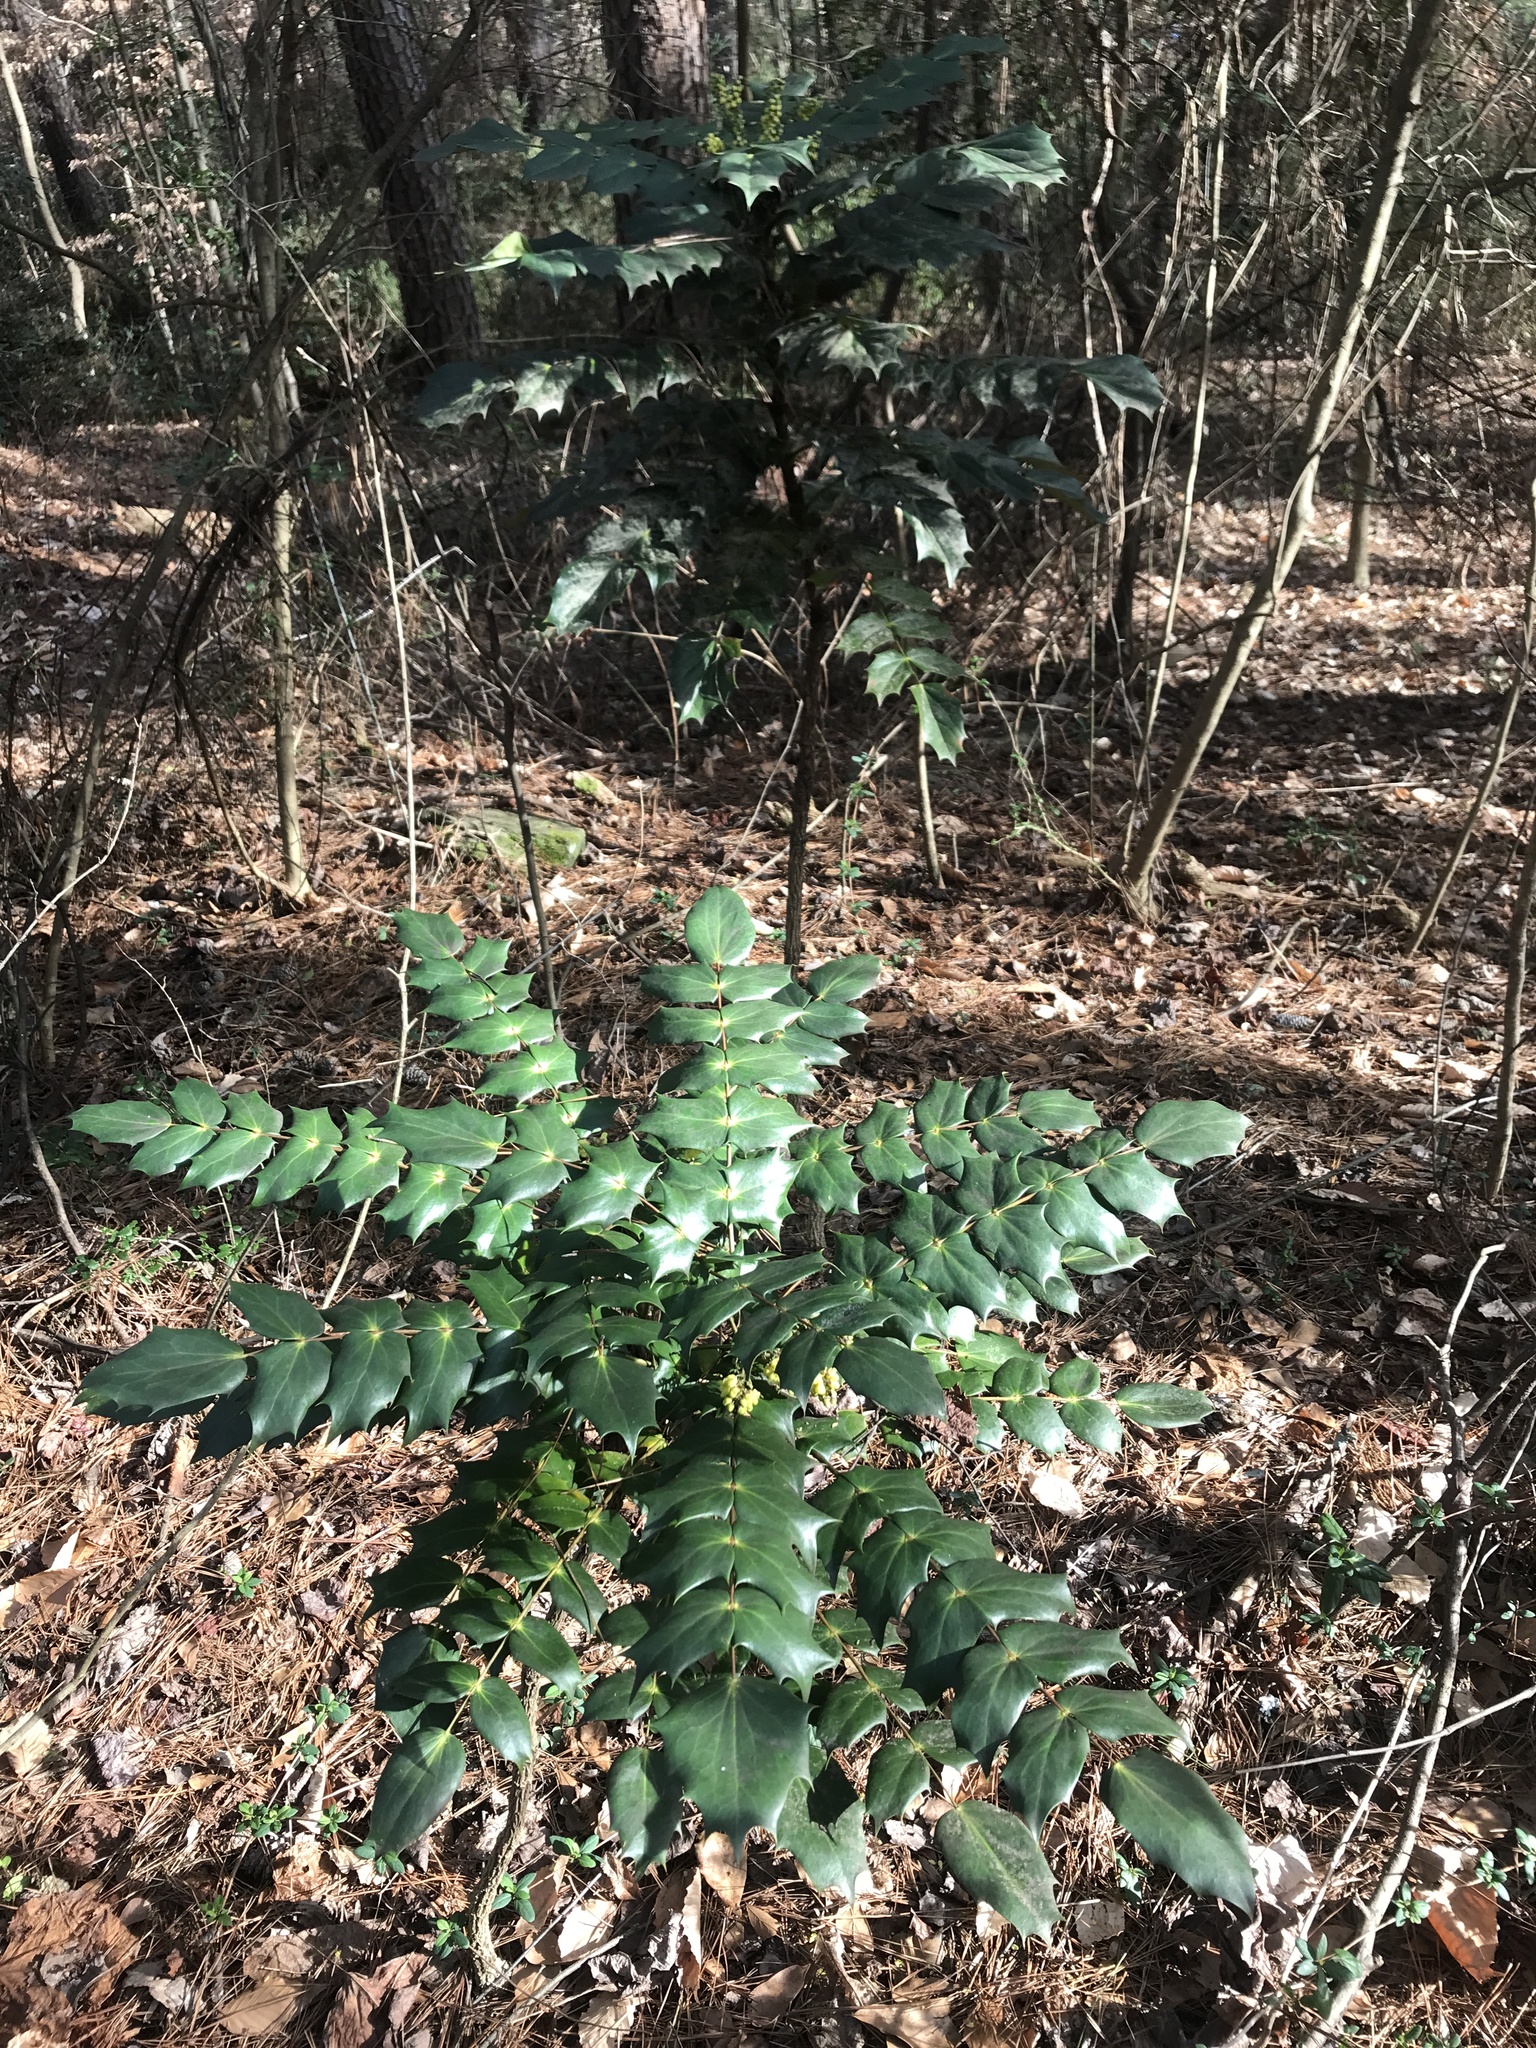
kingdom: Plantae
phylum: Tracheophyta
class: Magnoliopsida
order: Ranunculales
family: Berberidaceae
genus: Mahonia
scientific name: Mahonia bealei
